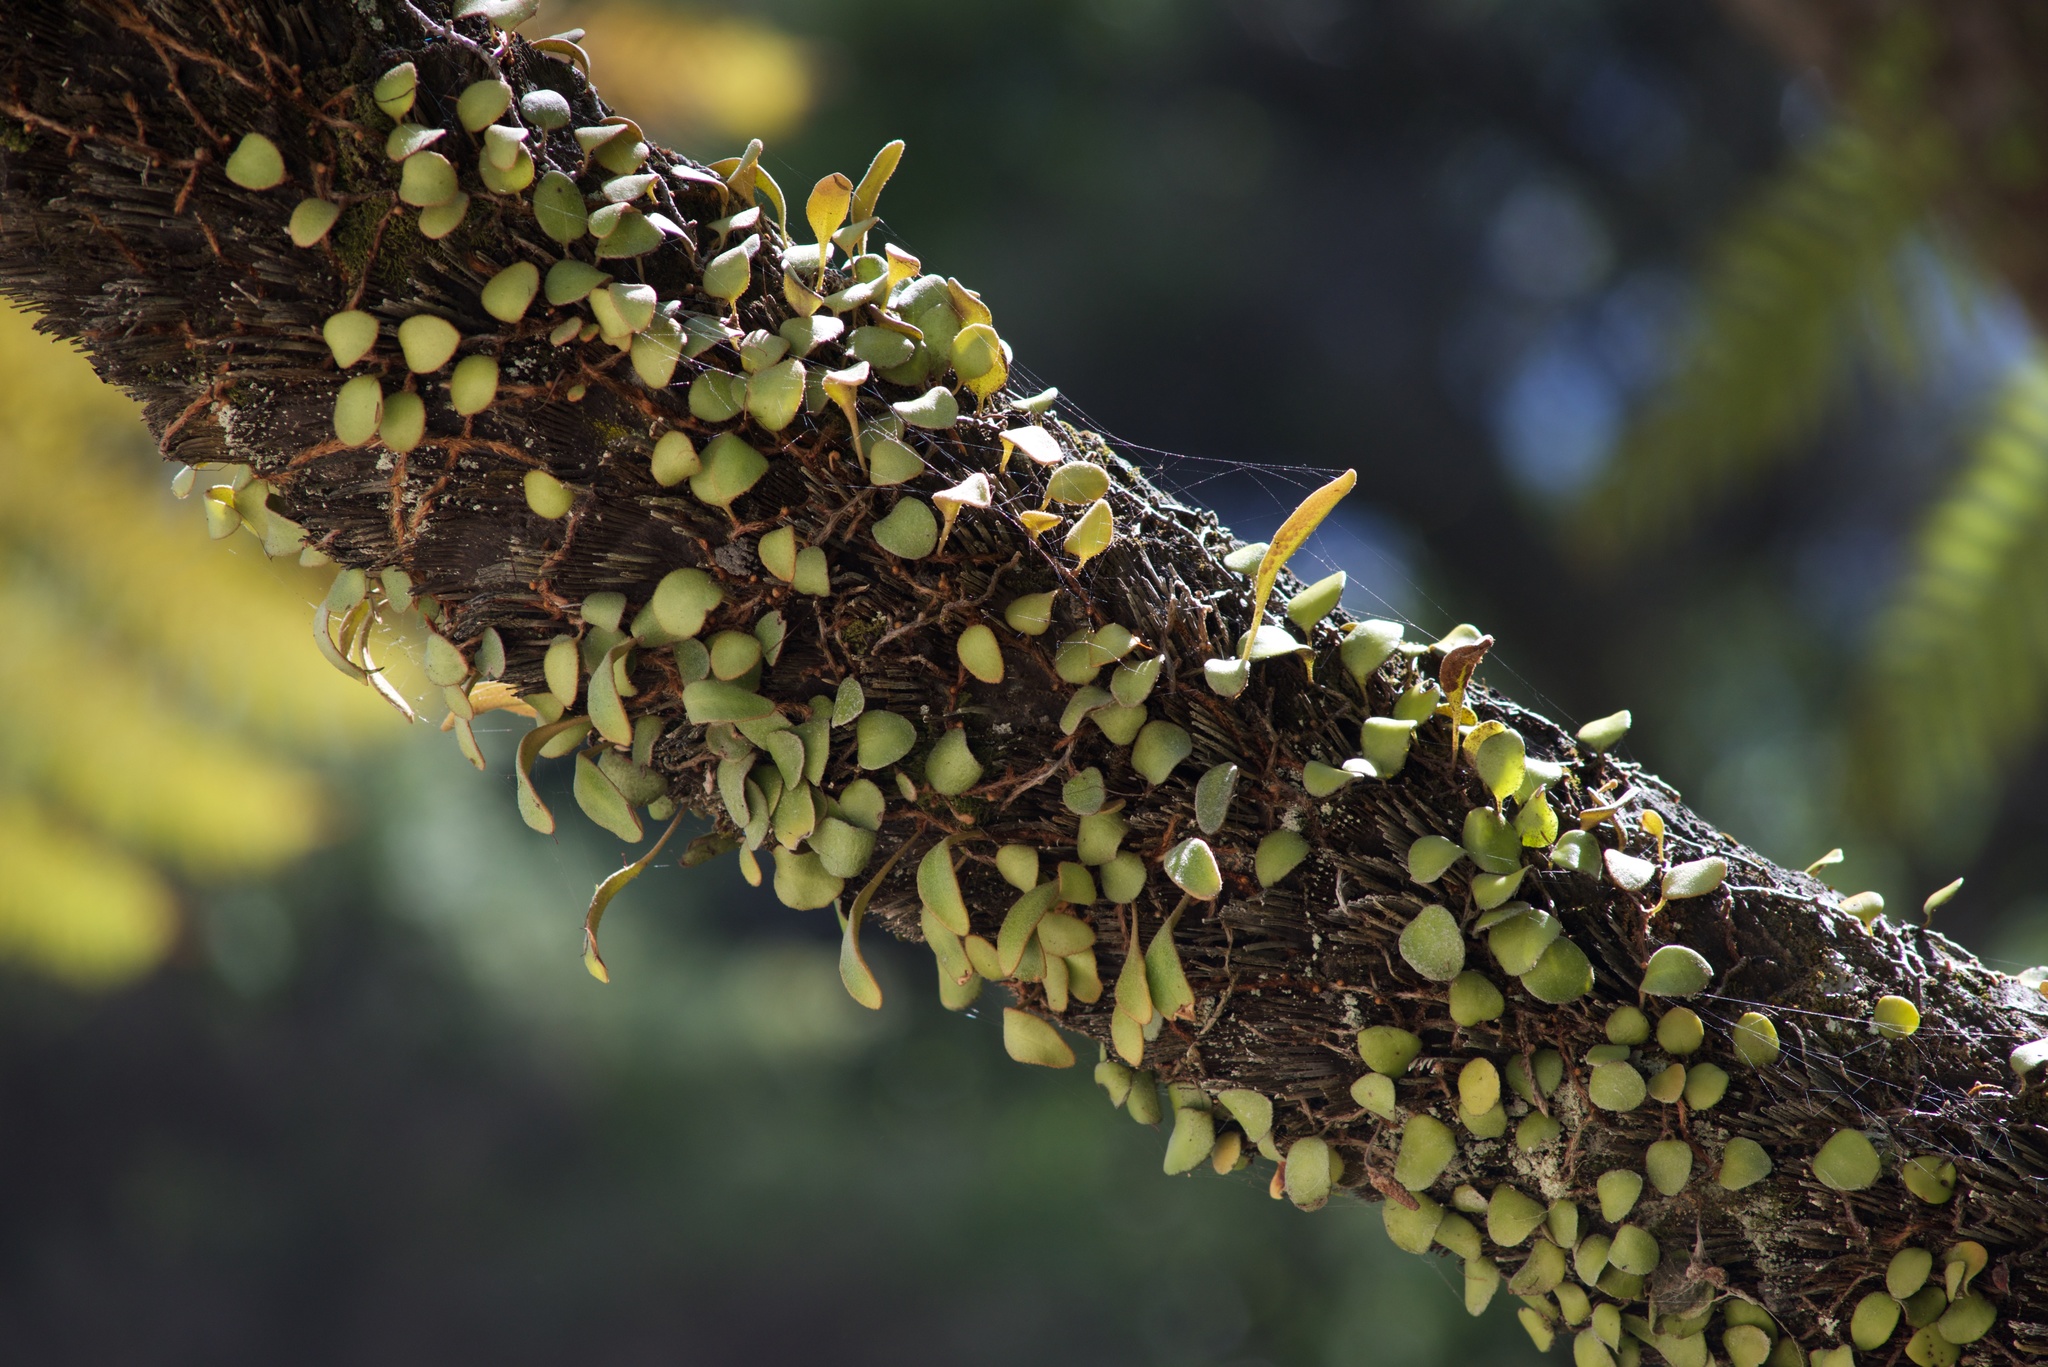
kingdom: Plantae
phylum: Tracheophyta
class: Polypodiopsida
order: Polypodiales
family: Polypodiaceae
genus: Pyrrosia
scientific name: Pyrrosia eleagnifolia
